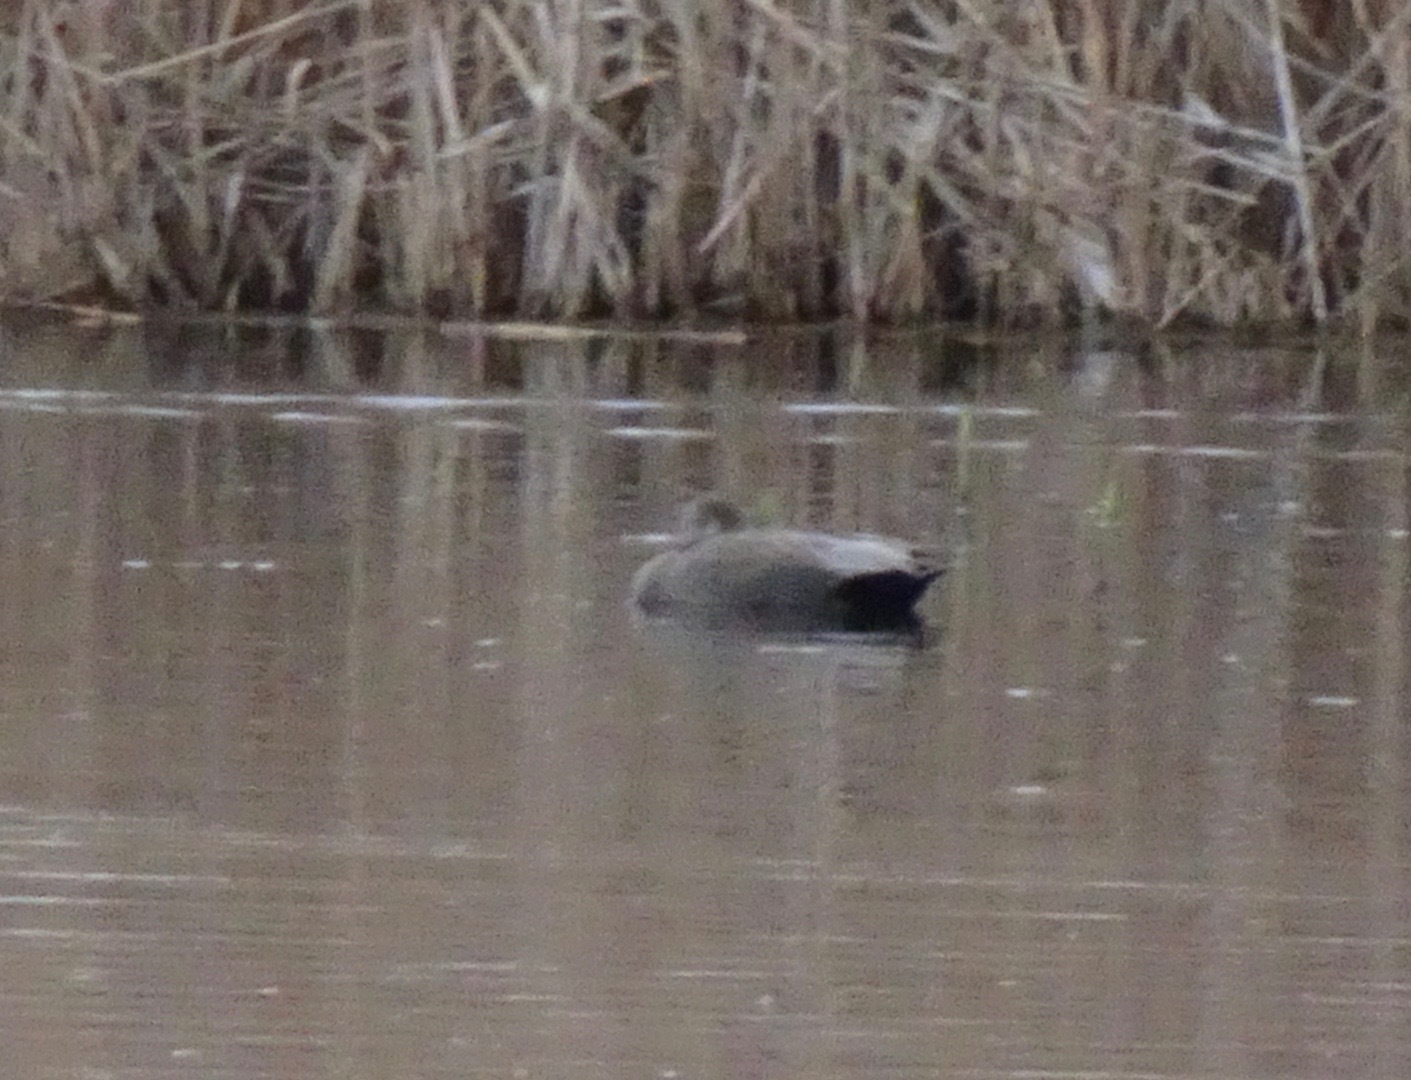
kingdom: Animalia
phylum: Chordata
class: Aves
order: Anseriformes
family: Anatidae
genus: Mareca
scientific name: Mareca strepera
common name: Gadwall
